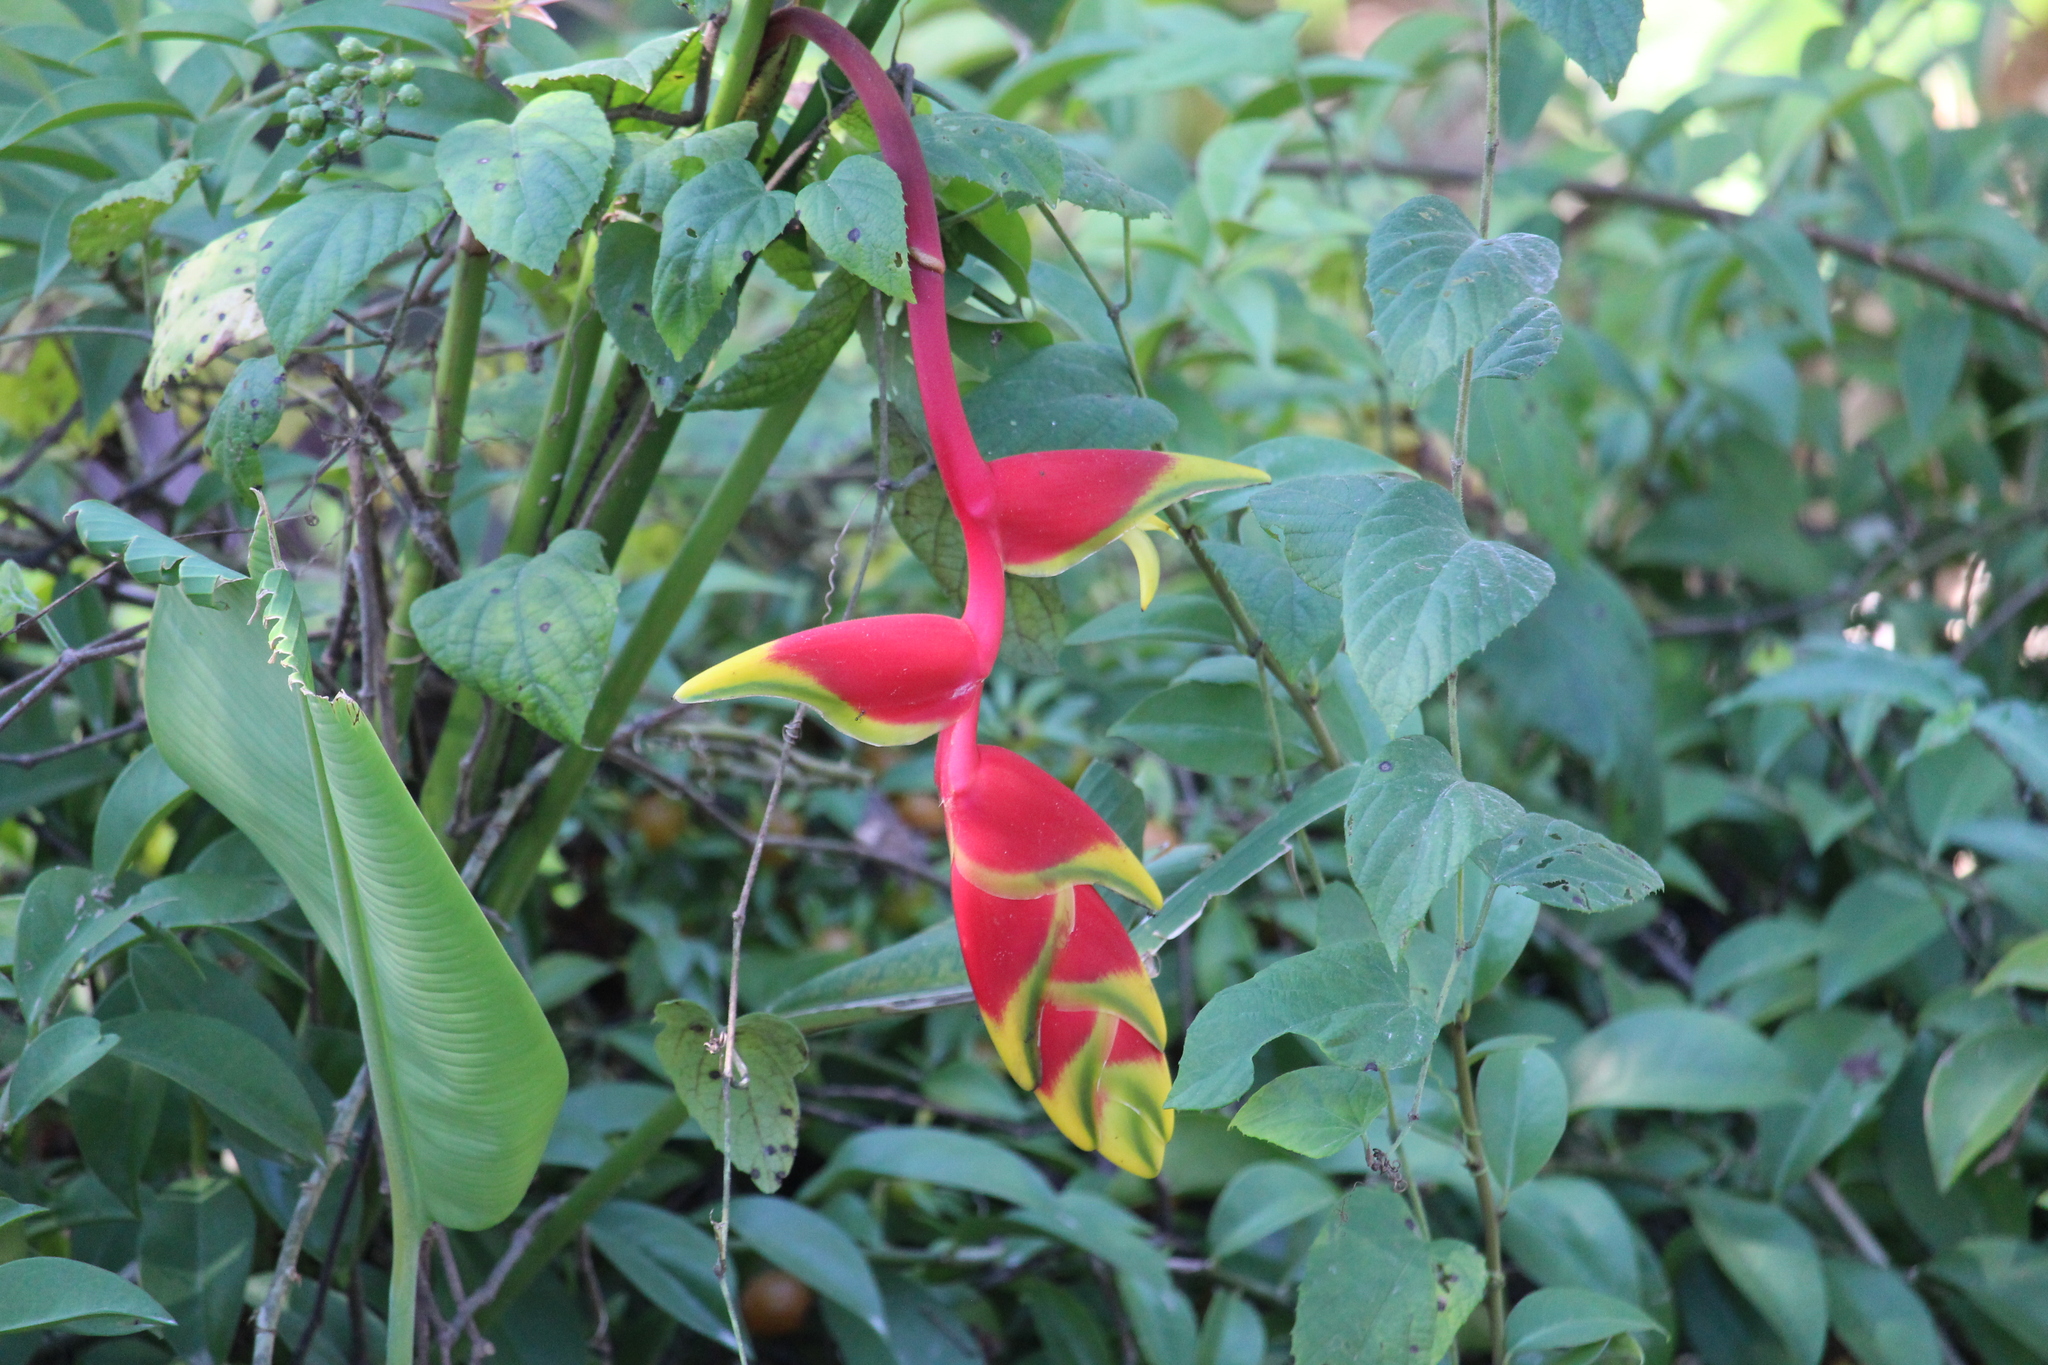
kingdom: Plantae
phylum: Tracheophyta
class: Liliopsida
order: Zingiberales
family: Heliconiaceae
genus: Heliconia
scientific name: Heliconia rostrata
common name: False bird of paradise
